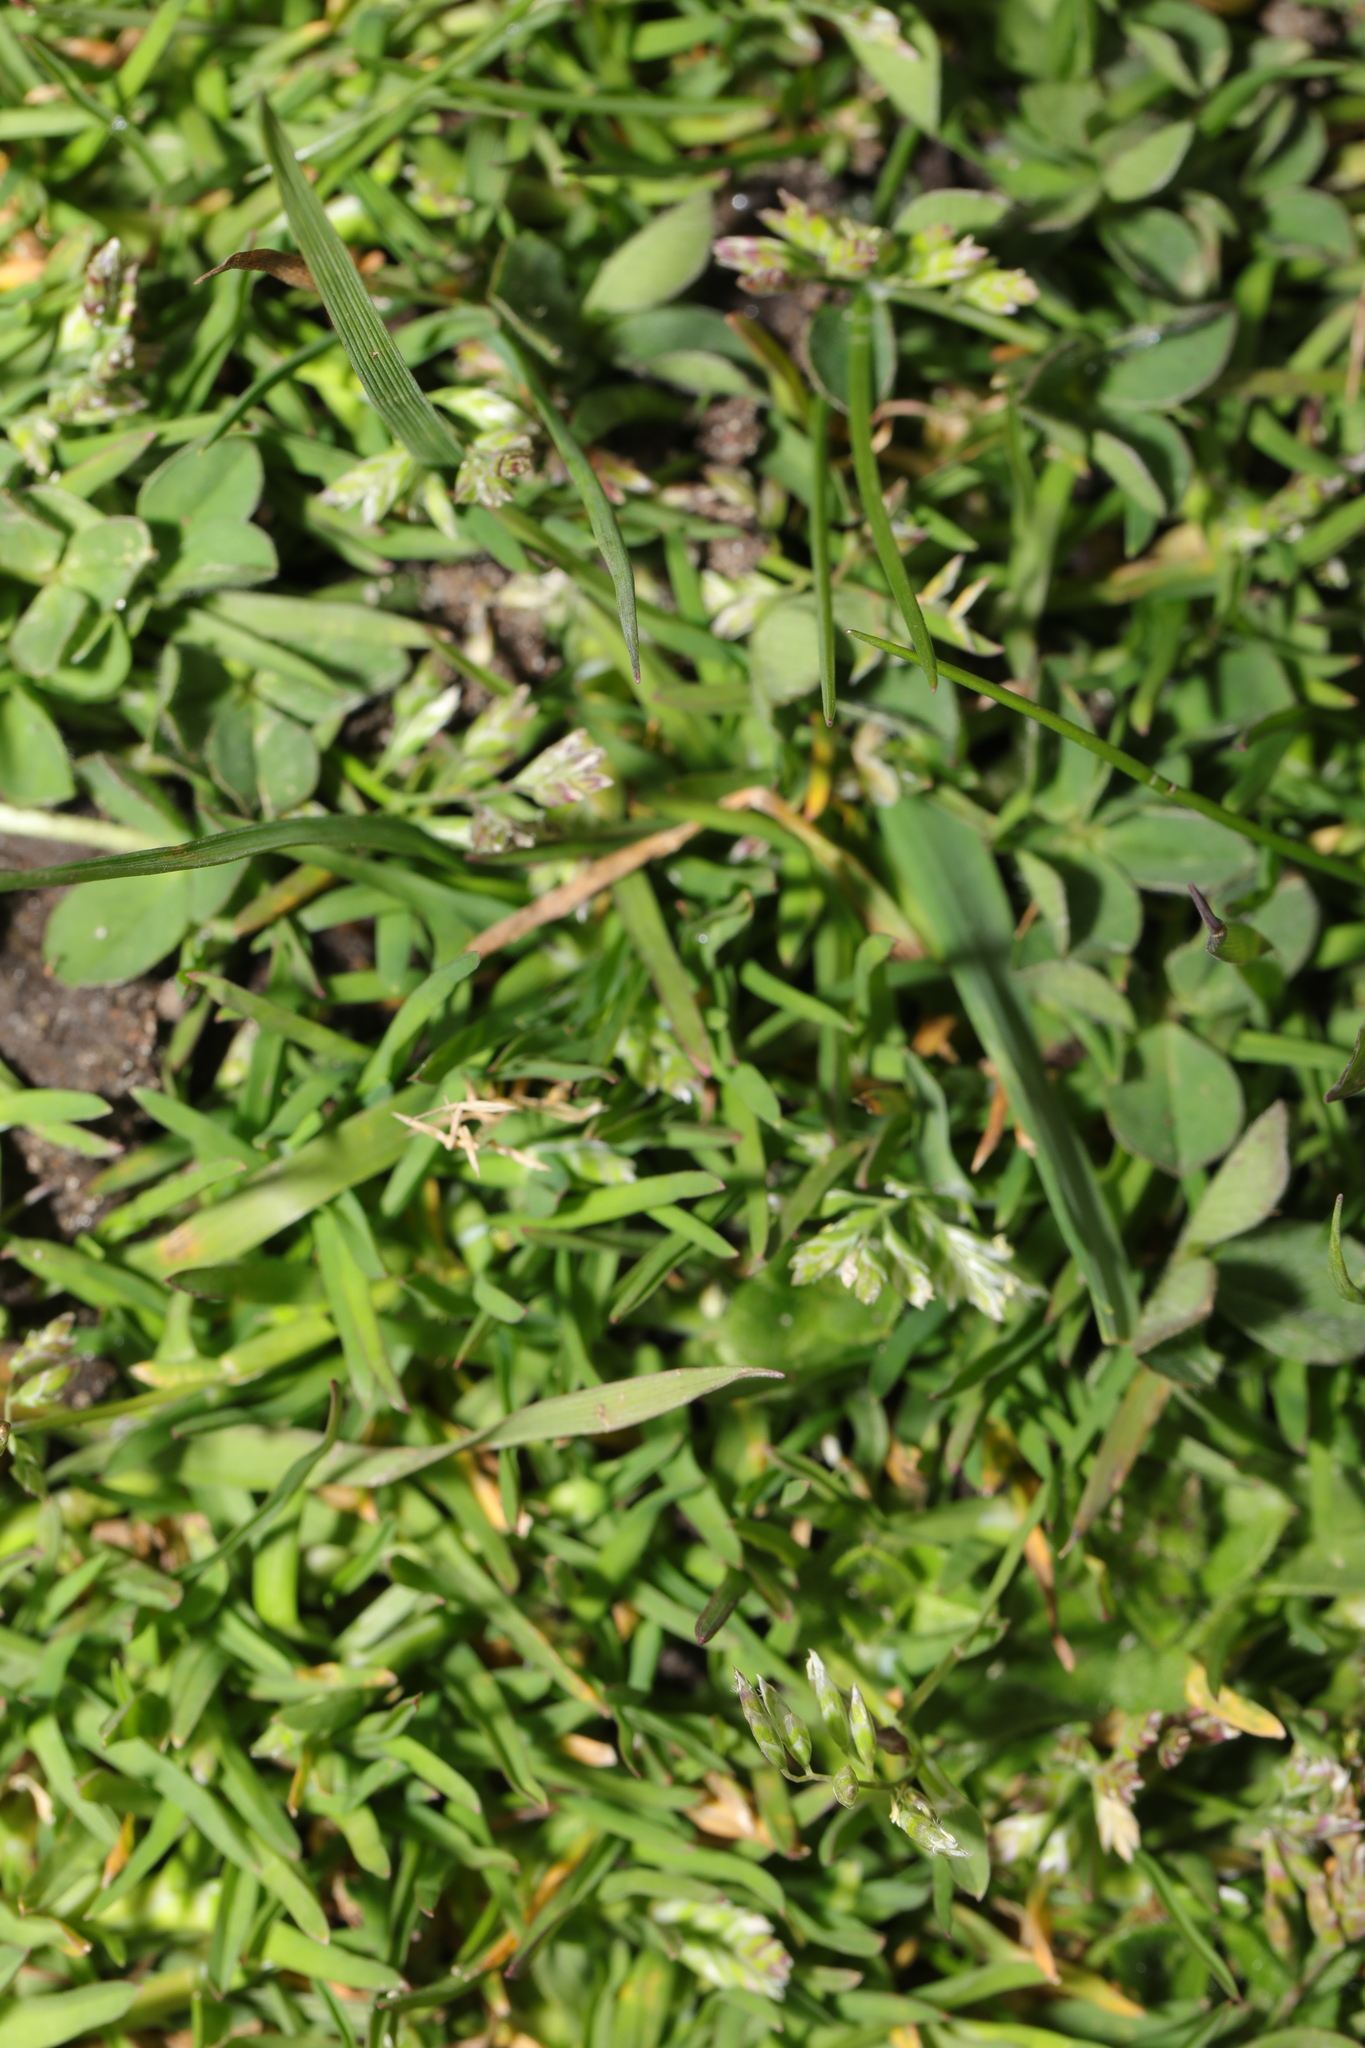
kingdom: Plantae
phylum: Tracheophyta
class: Liliopsida
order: Poales
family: Poaceae
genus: Poa
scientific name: Poa annua
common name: Annual bluegrass
